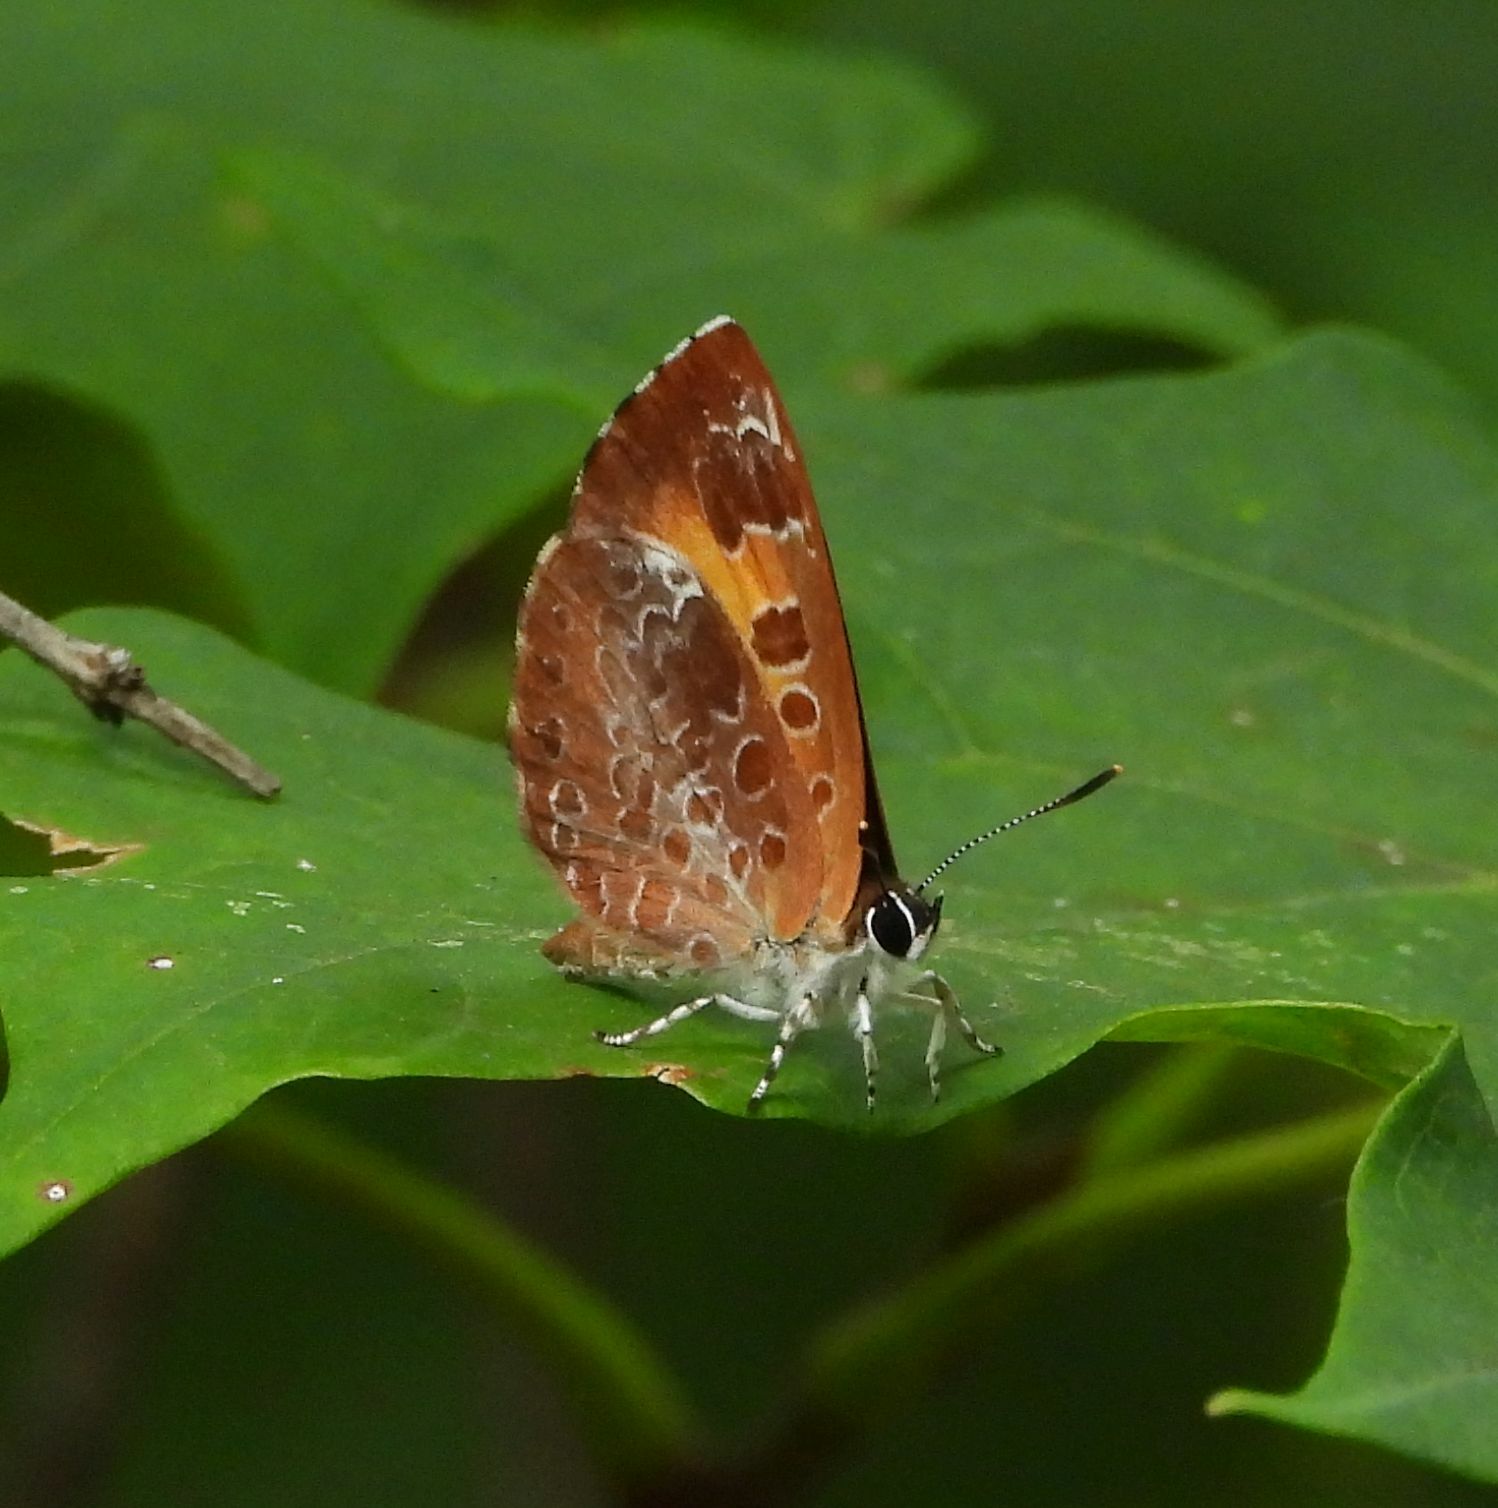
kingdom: Animalia
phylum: Arthropoda
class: Insecta
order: Lepidoptera
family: Lycaenidae
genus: Feniseca
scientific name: Feniseca tarquinius
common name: Harvester
